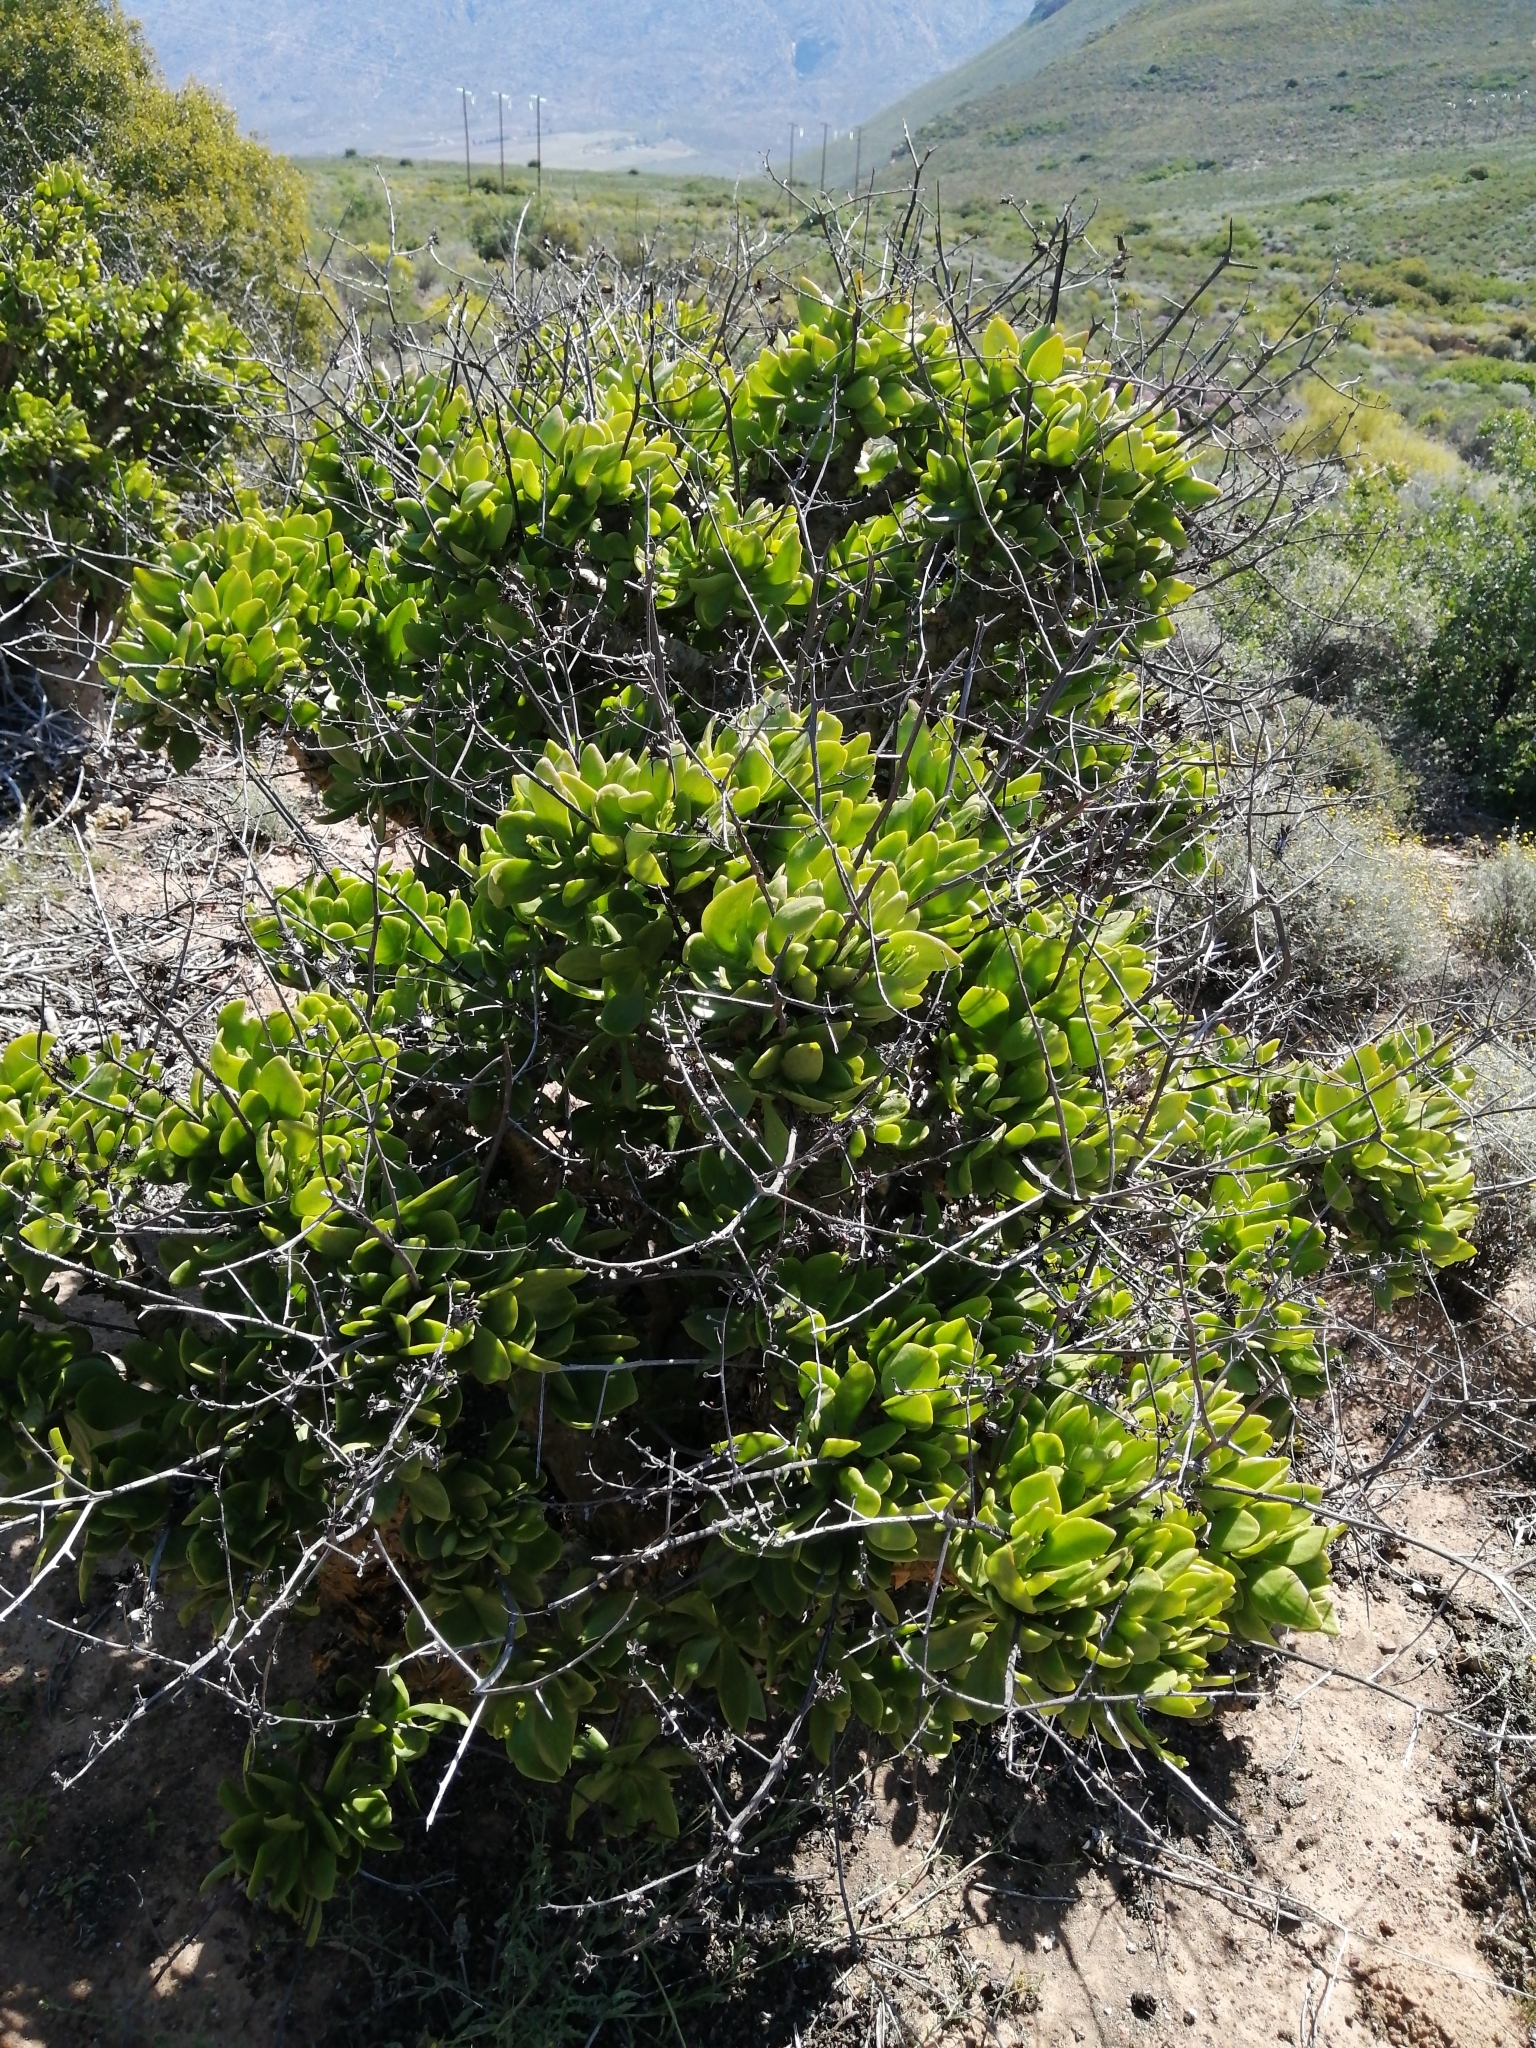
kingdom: Plantae
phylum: Tracheophyta
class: Magnoliopsida
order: Saxifragales
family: Crassulaceae
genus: Tylecodon
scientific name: Tylecodon paniculatus
